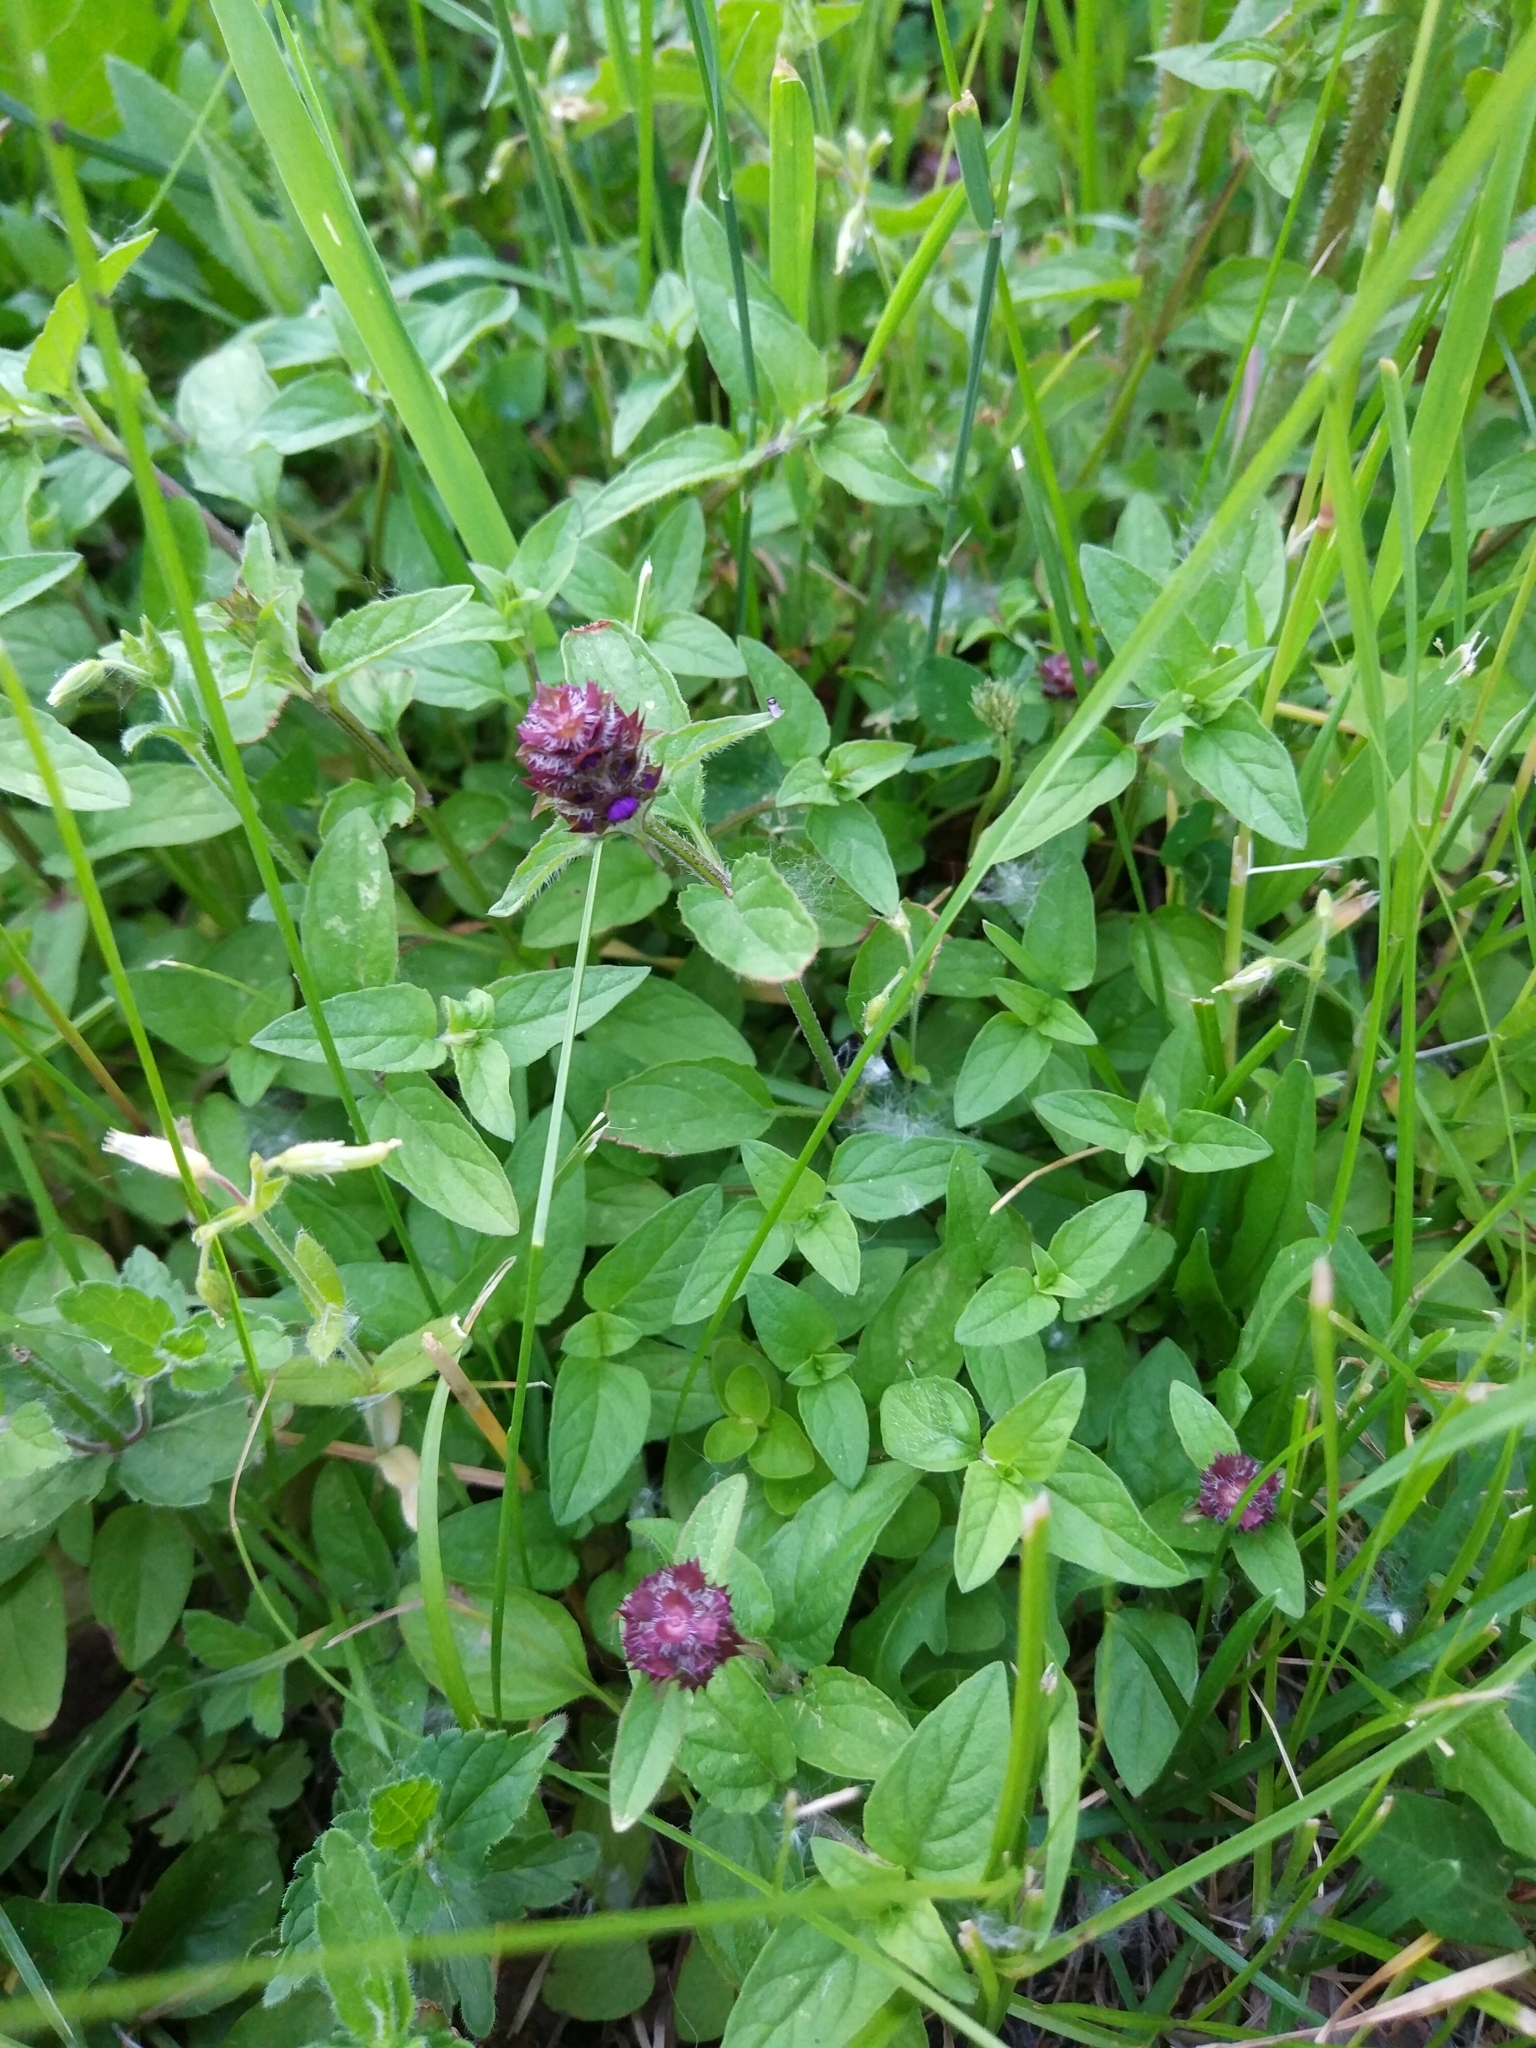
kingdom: Plantae
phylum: Tracheophyta
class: Magnoliopsida
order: Lamiales
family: Lamiaceae
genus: Prunella
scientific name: Prunella vulgaris
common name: Heal-all
